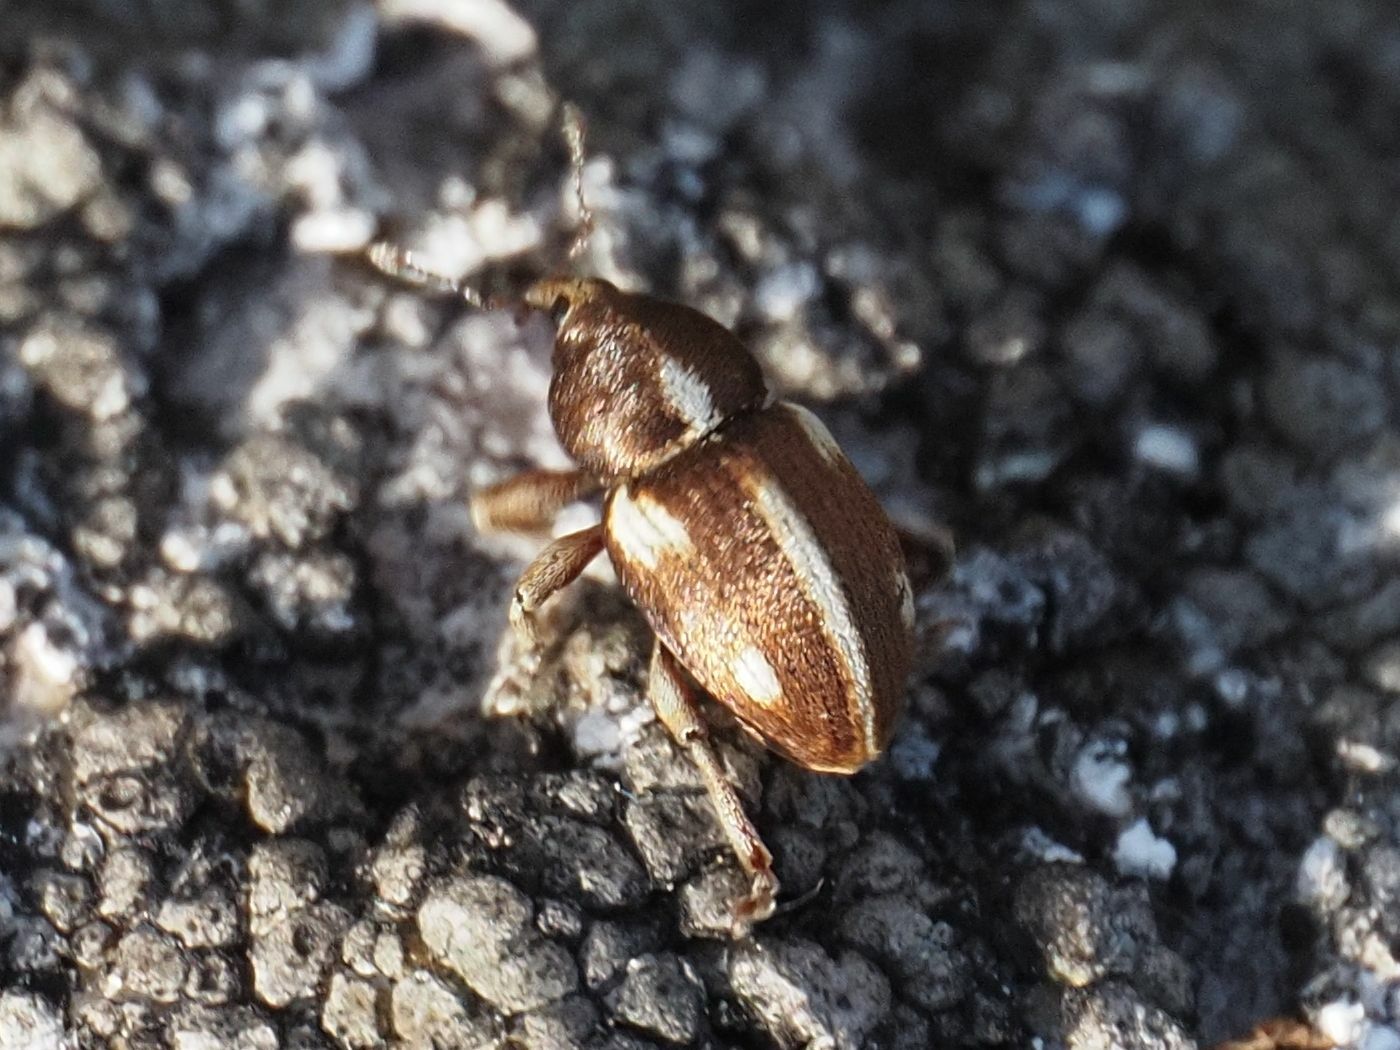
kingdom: Animalia
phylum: Arthropoda
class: Insecta
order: Coleoptera
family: Curculionidae
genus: Tychius
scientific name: Tychius quinquepunctatus
